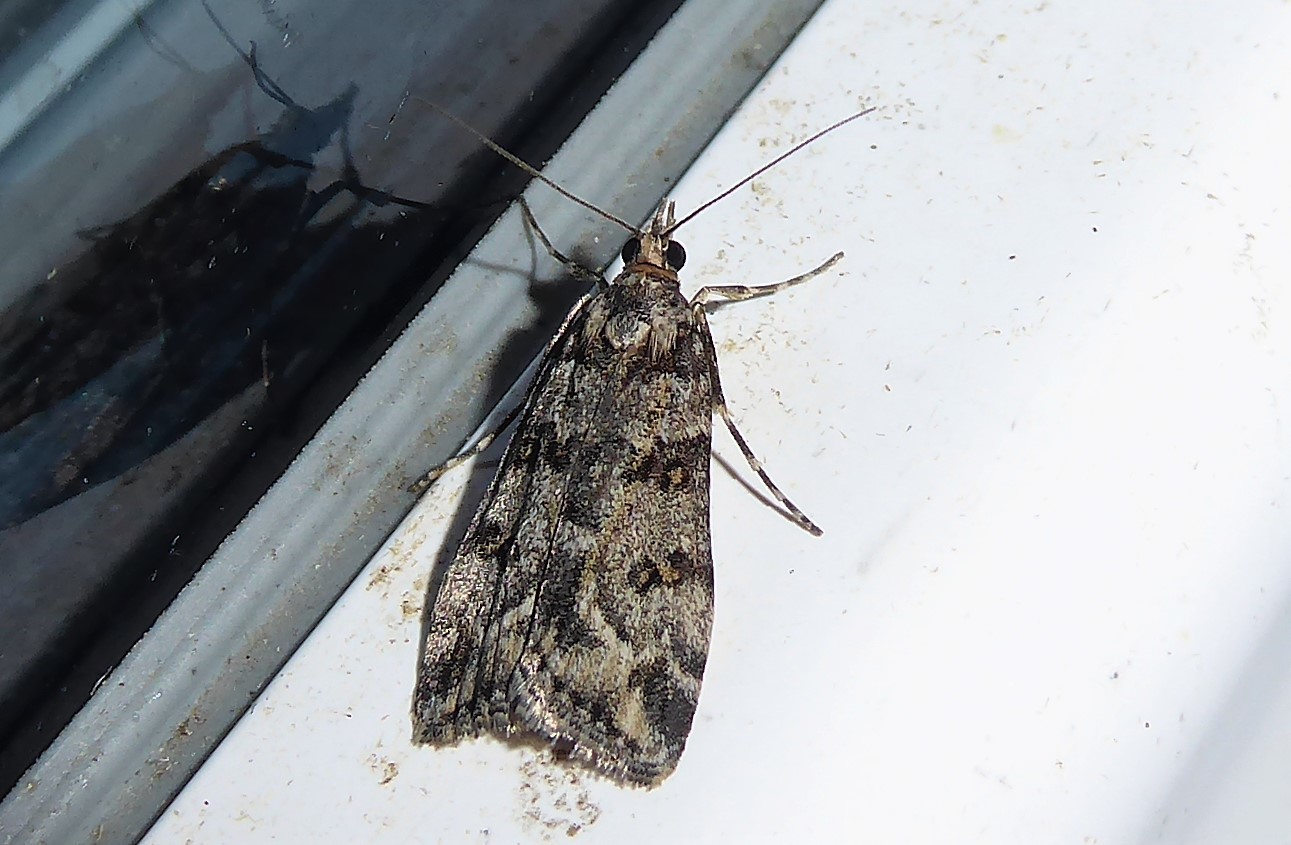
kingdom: Animalia
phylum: Arthropoda
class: Insecta
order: Lepidoptera
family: Crambidae
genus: Eudonia
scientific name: Eudonia diphtheralis
